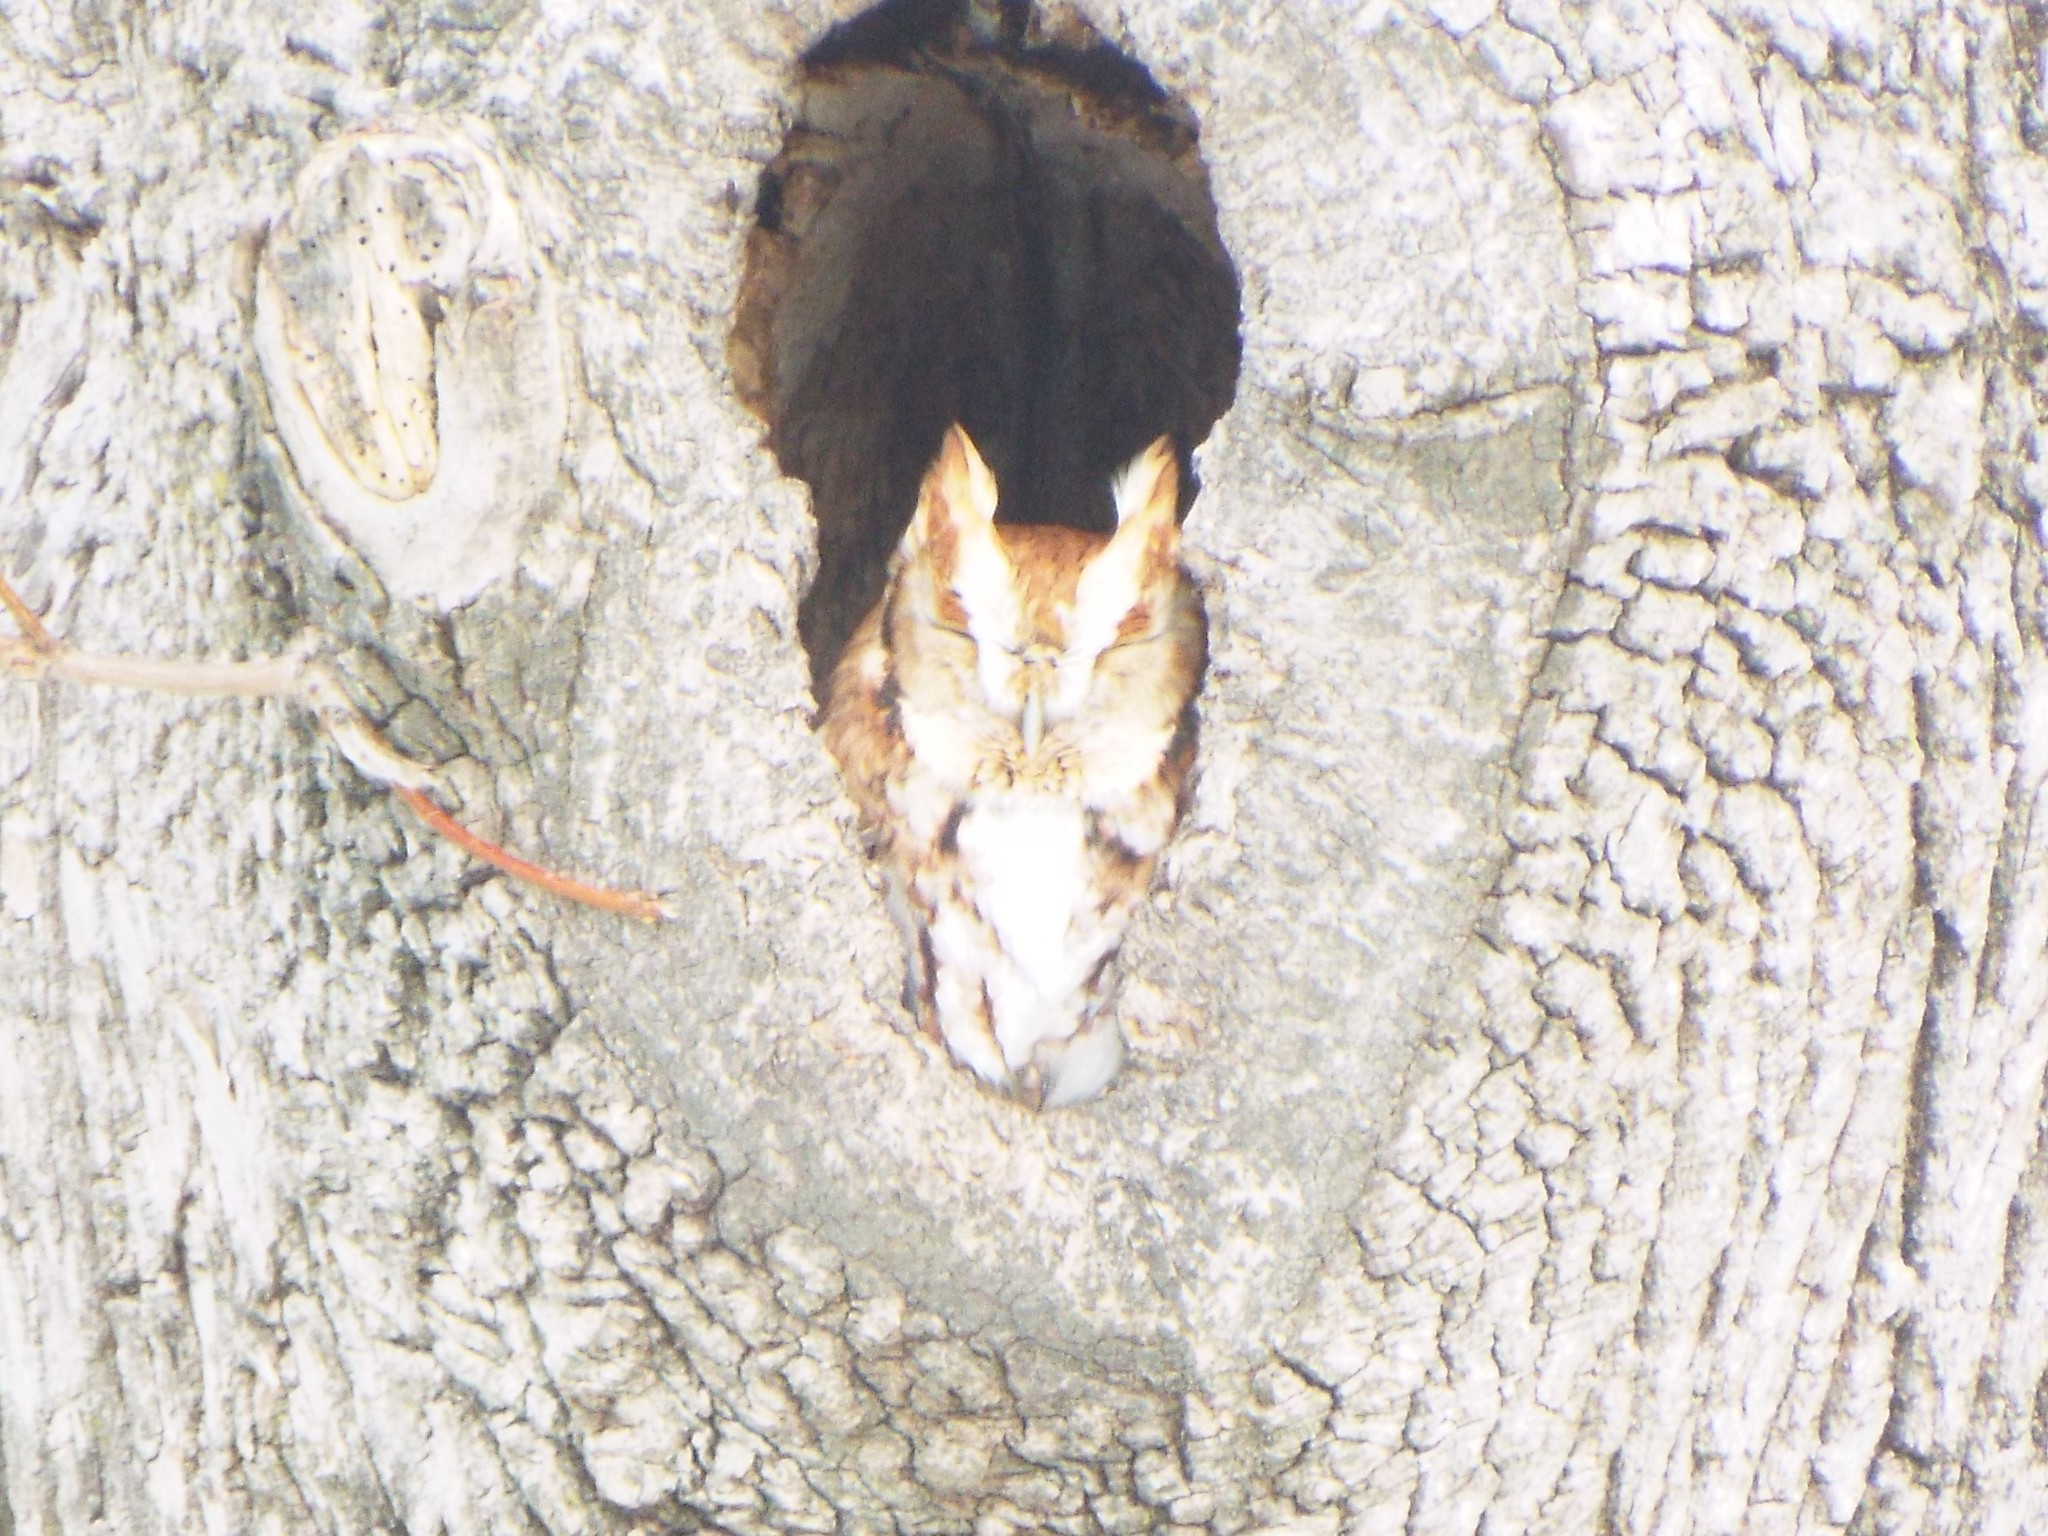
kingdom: Animalia
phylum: Chordata
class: Aves
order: Strigiformes
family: Strigidae
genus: Megascops
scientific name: Megascops asio
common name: Eastern screech-owl
